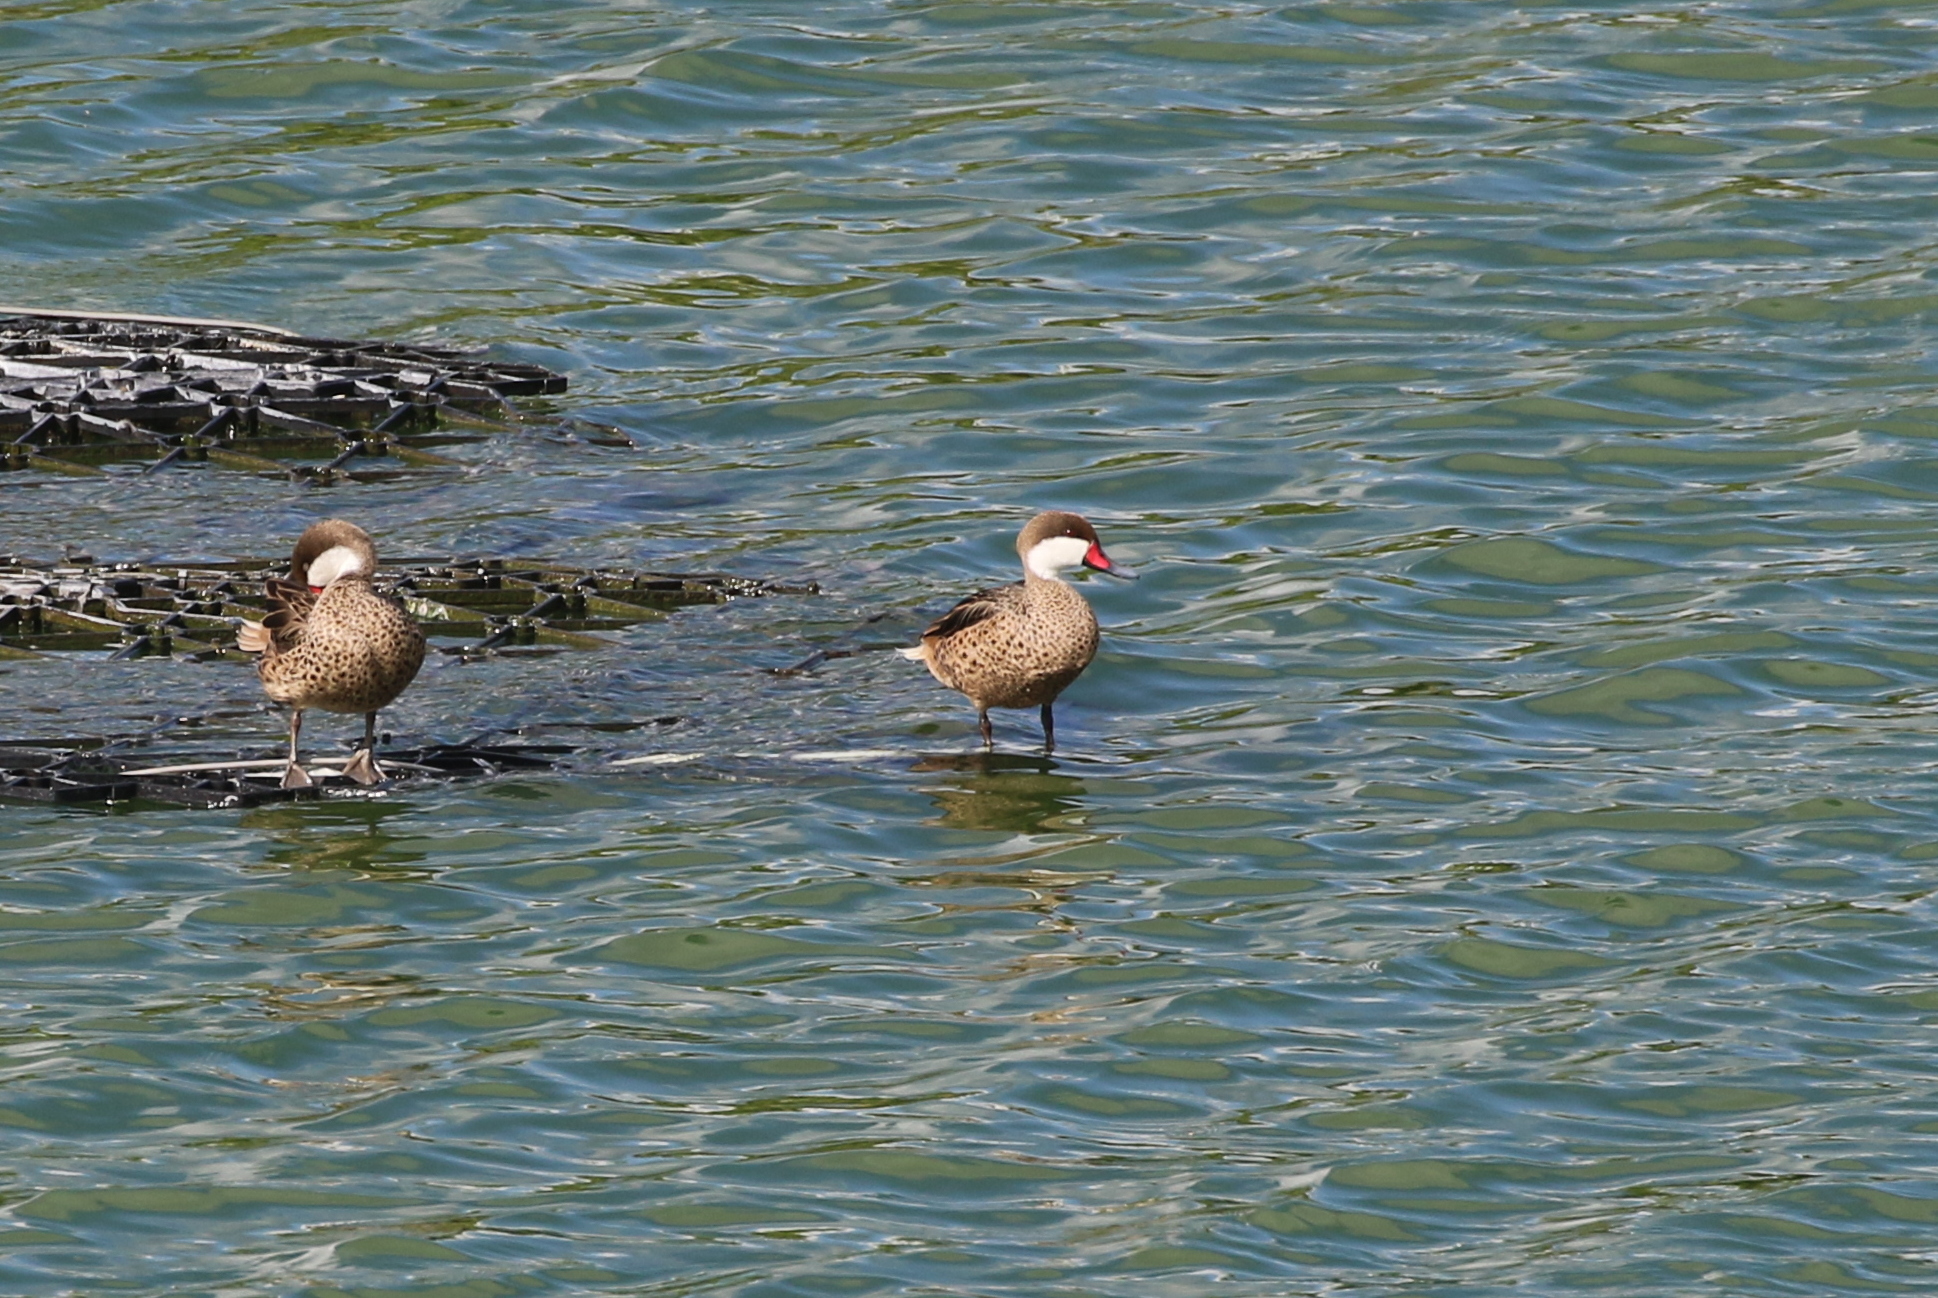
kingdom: Animalia
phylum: Chordata
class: Aves
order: Anseriformes
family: Anatidae
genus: Anas
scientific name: Anas bahamensis
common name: White-cheeked pintail
